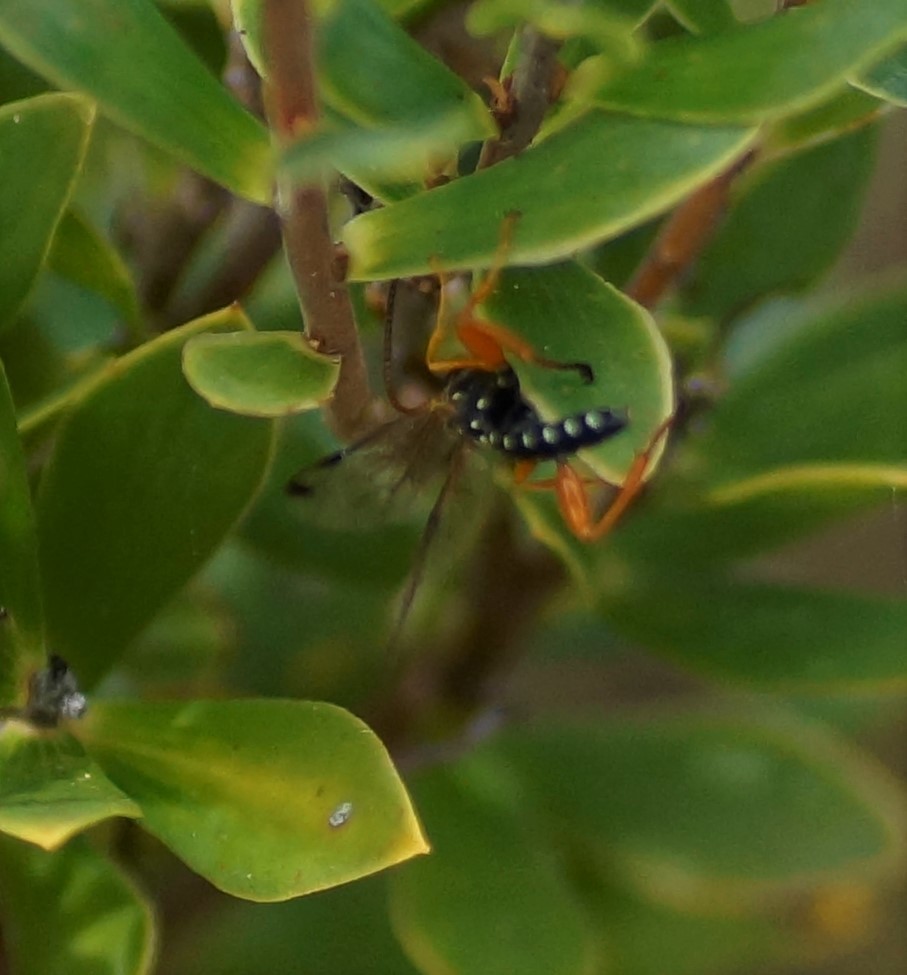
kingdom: Animalia
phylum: Arthropoda
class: Insecta
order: Hymenoptera
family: Ichneumonidae
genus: Echthromorpha
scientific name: Echthromorpha intricatoria
